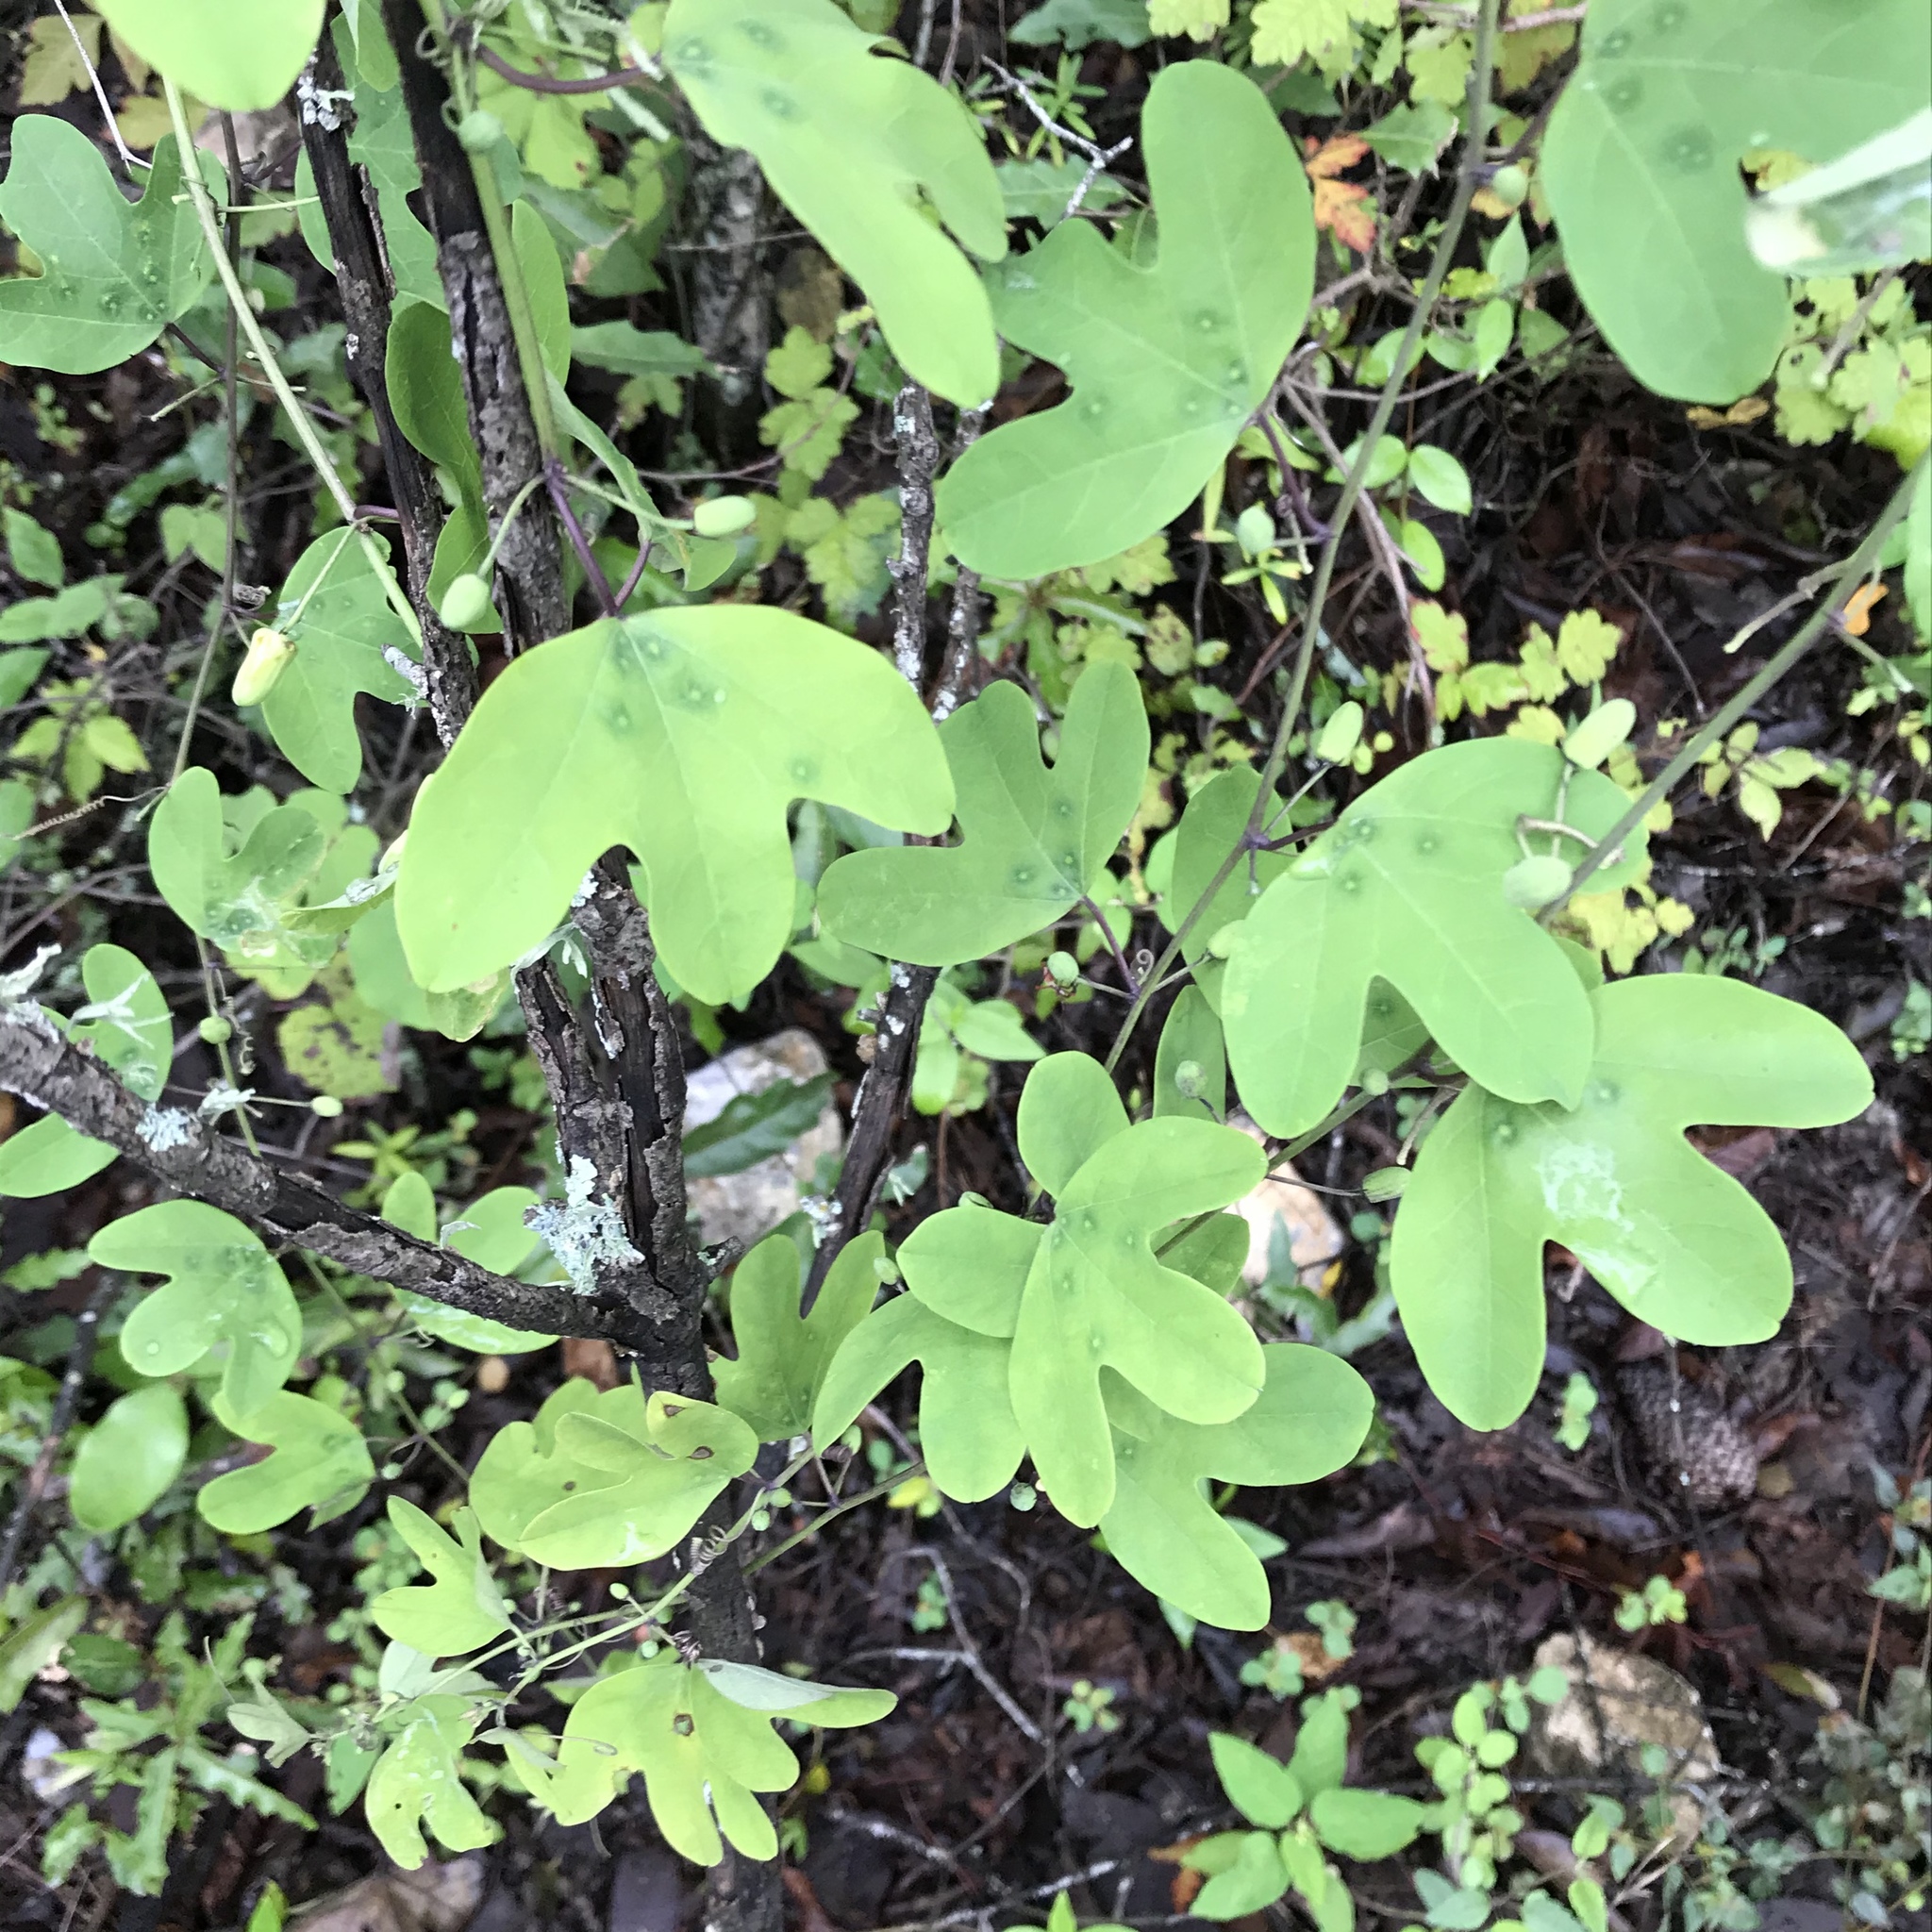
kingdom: Plantae
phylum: Tracheophyta
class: Magnoliopsida
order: Malpighiales
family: Passifloraceae
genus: Passiflora
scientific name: Passiflora affinis
